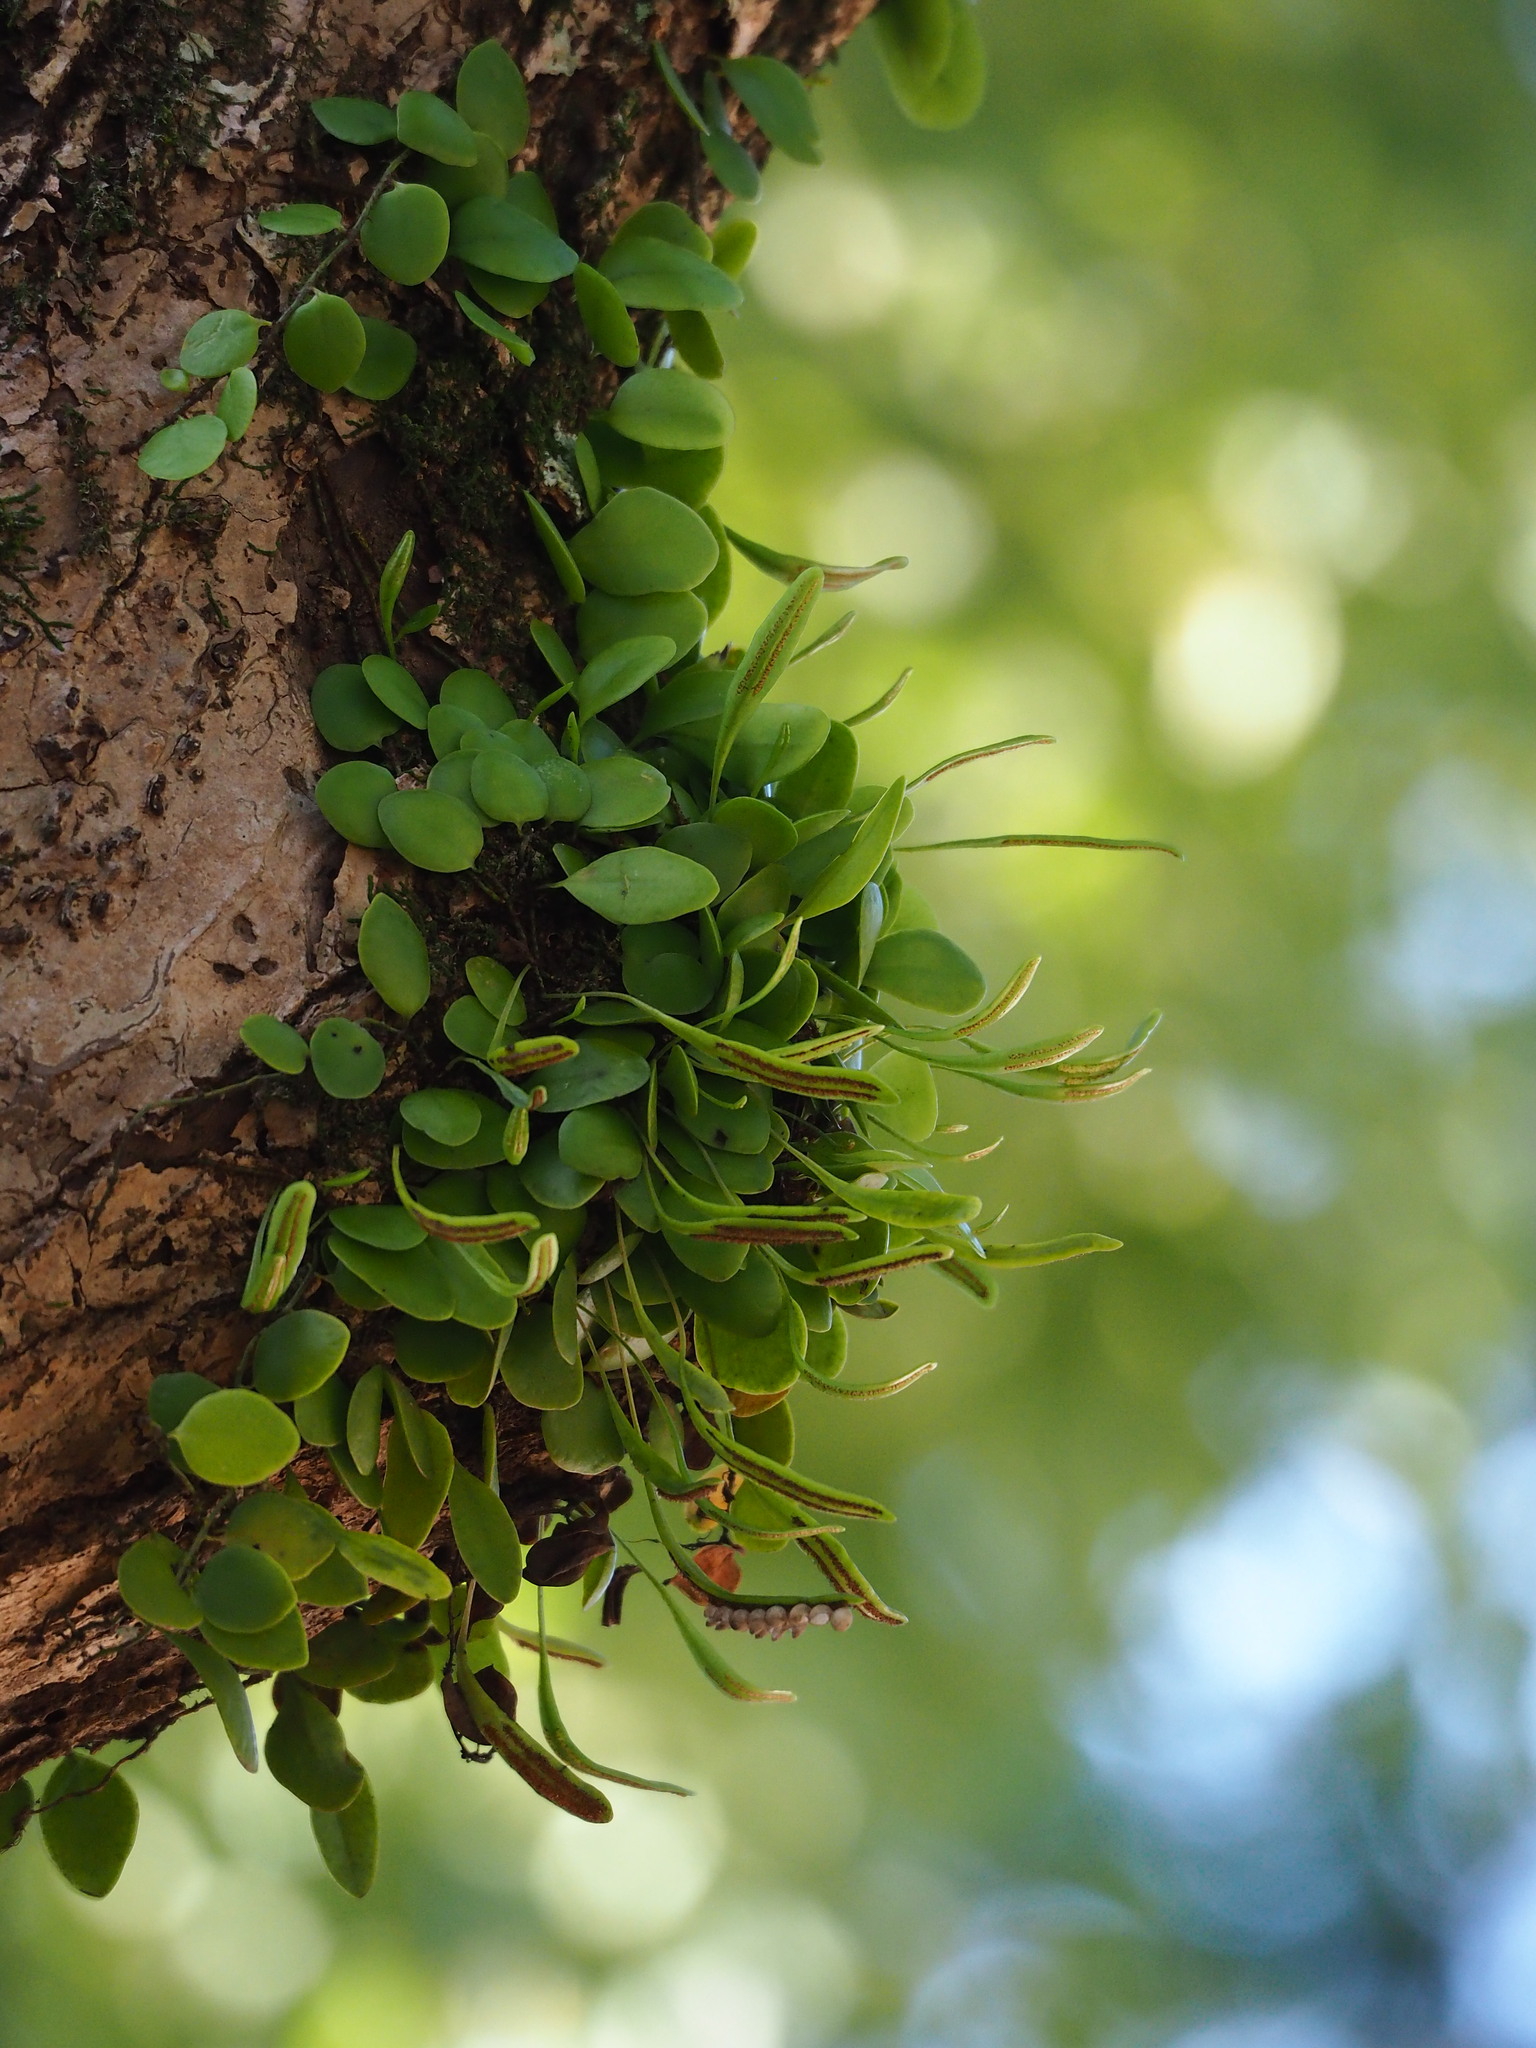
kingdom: Plantae
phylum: Tracheophyta
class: Polypodiopsida
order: Polypodiales
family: Polypodiaceae
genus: Lepisorus
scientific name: Lepisorus microphyllus
